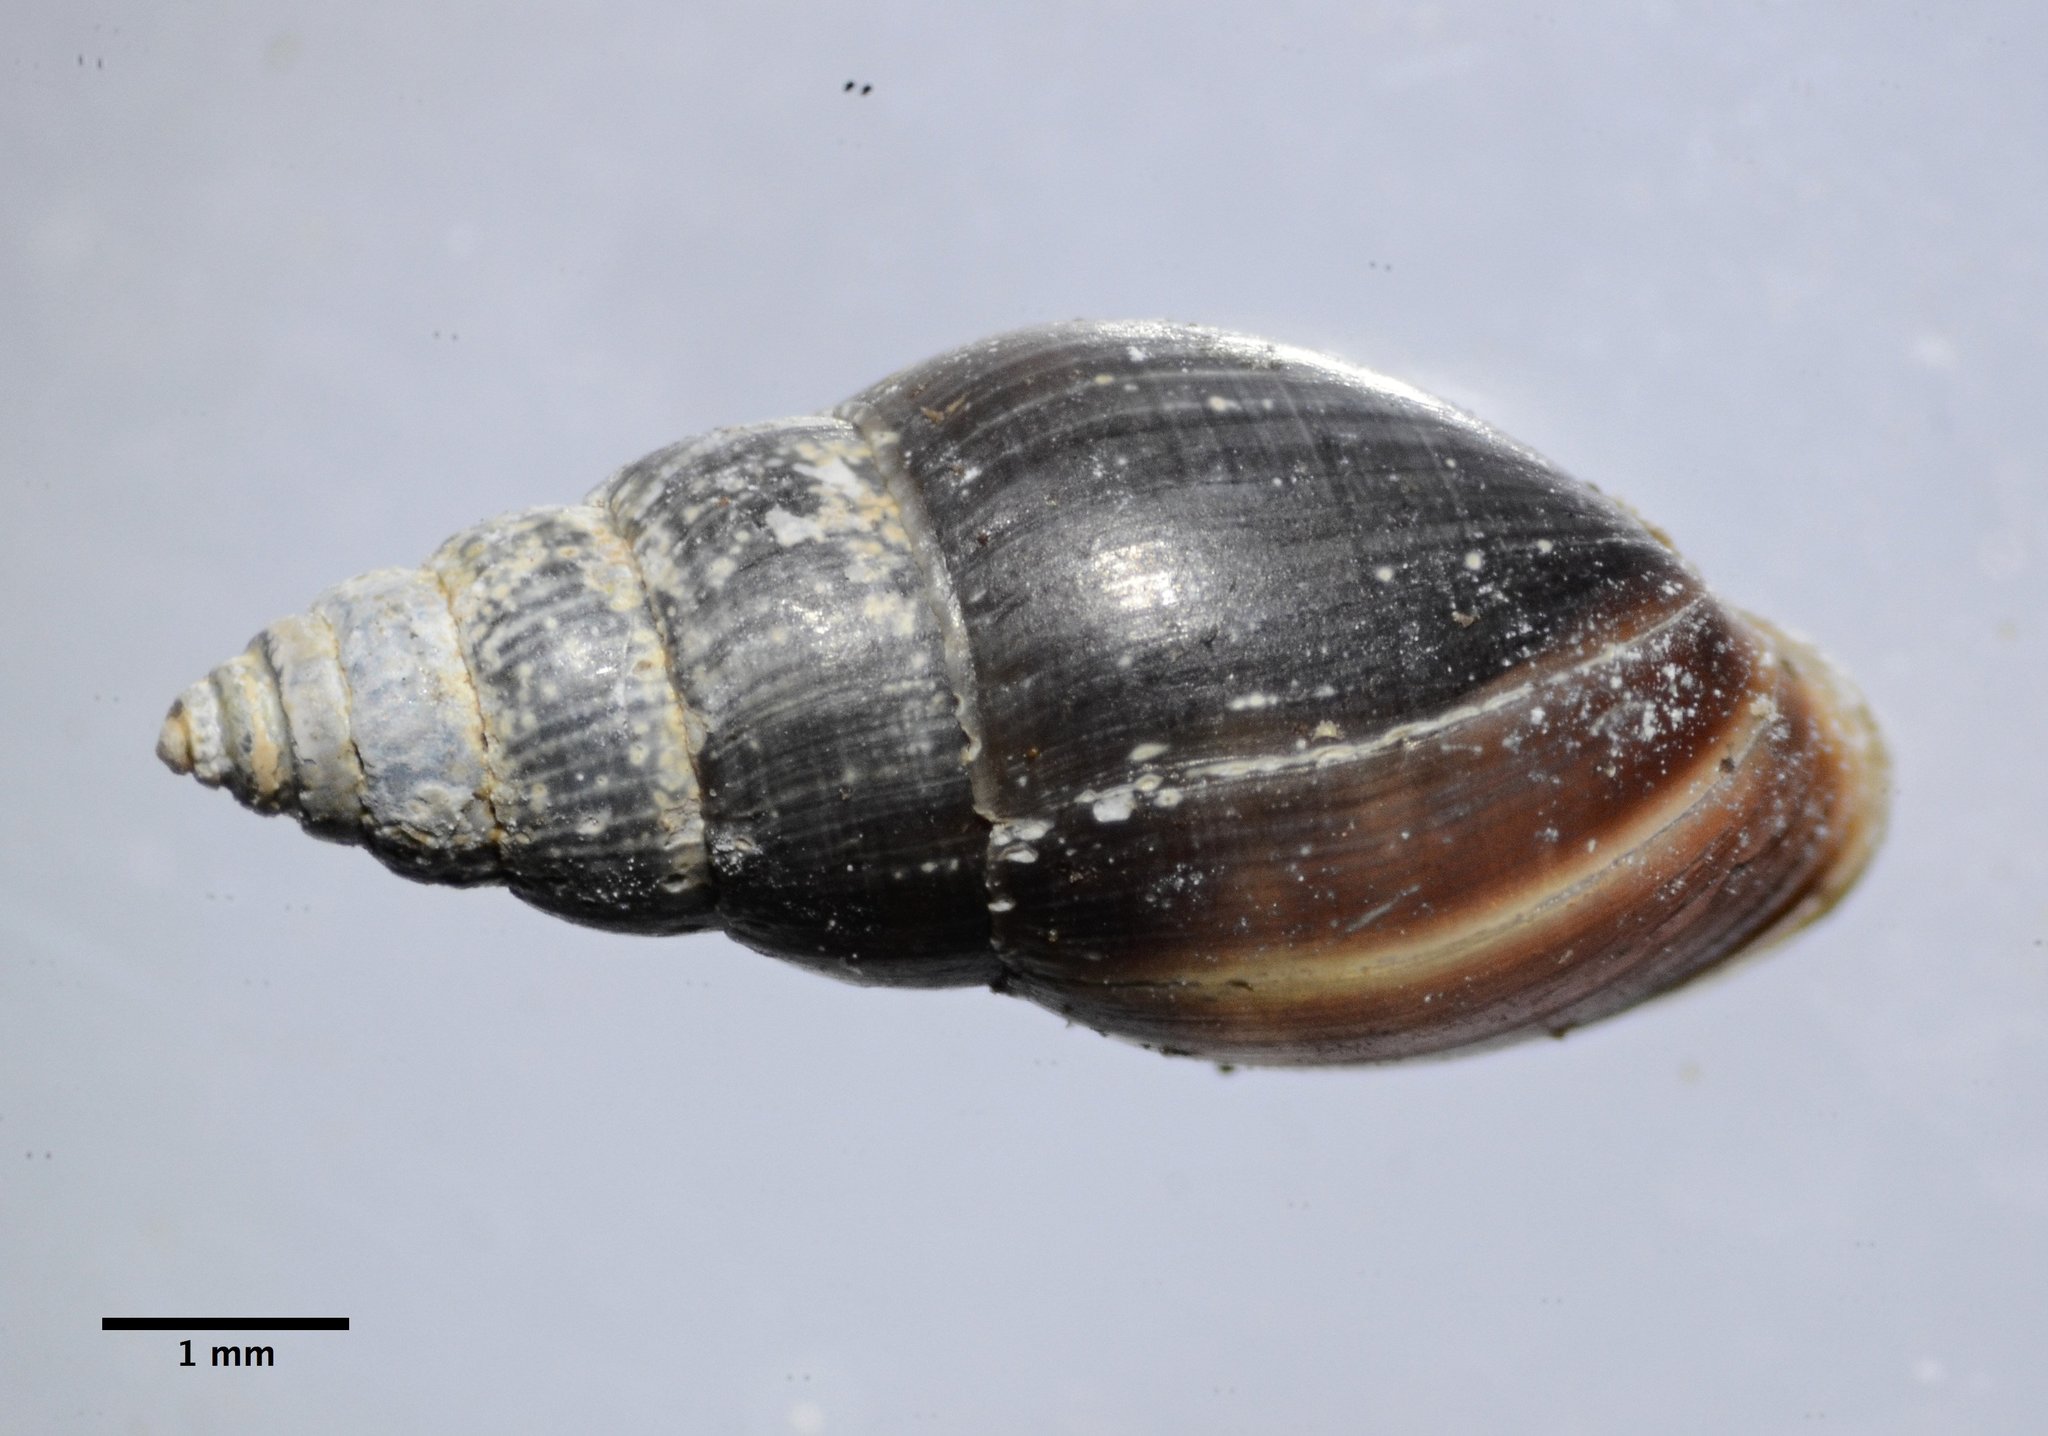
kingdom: Animalia
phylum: Mollusca
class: Gastropoda
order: Ellobiida
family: Ellobiidae
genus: Myosotella
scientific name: Myosotella myosotis
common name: Mouse-eared snail
